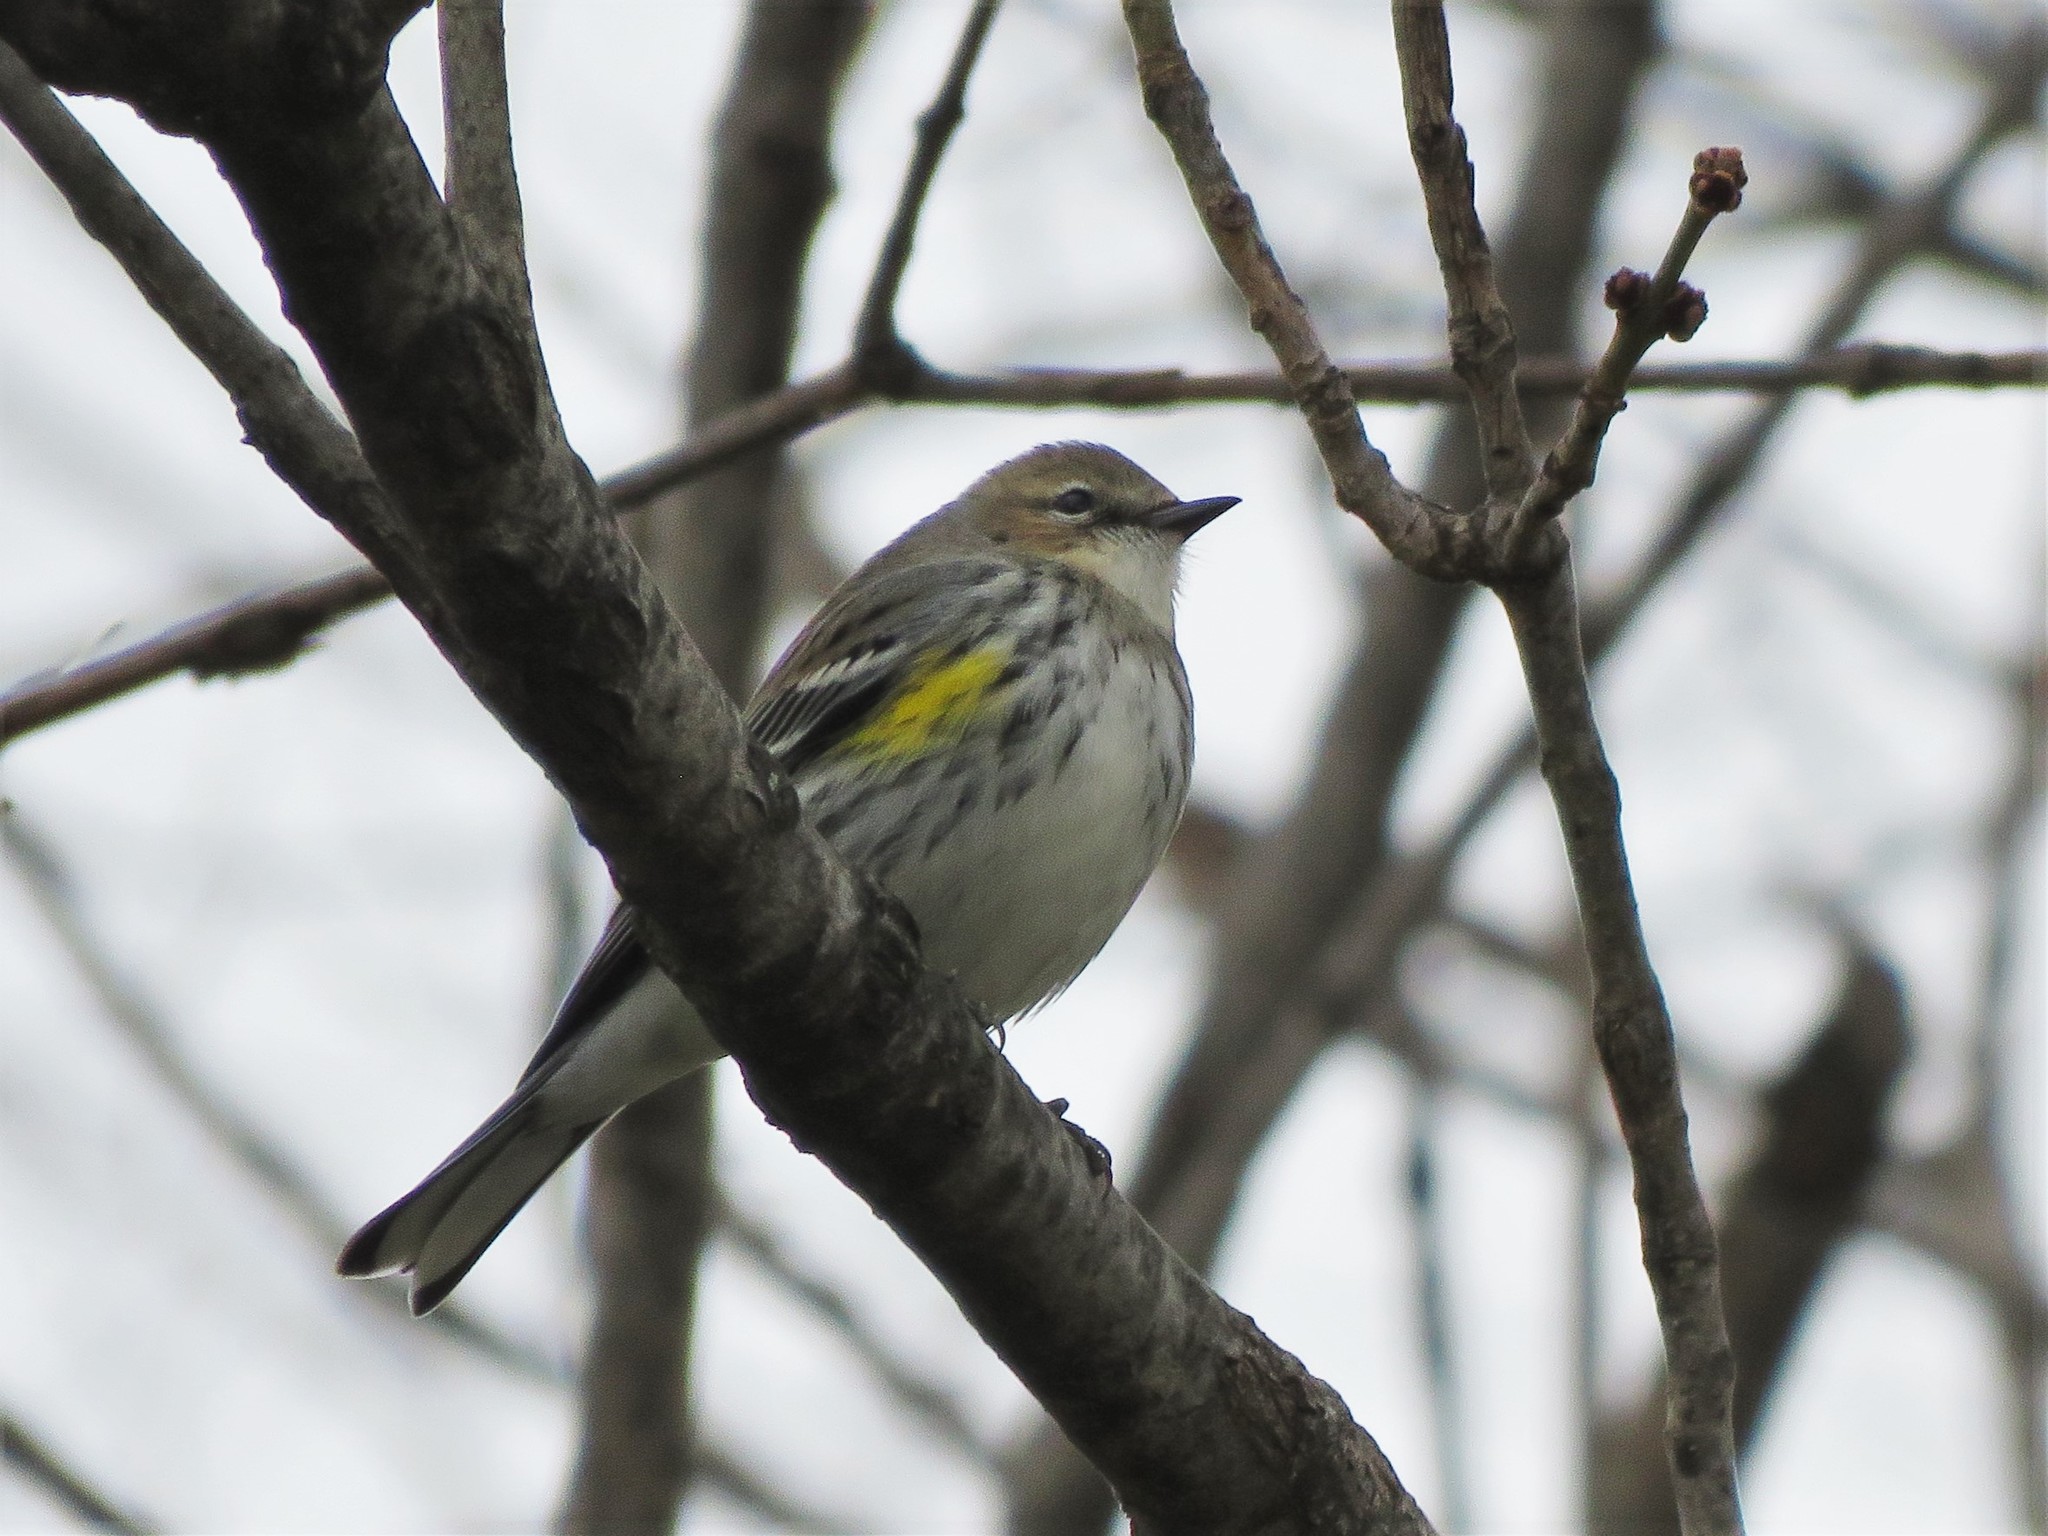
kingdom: Animalia
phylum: Chordata
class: Aves
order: Passeriformes
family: Parulidae
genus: Setophaga
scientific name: Setophaga coronata
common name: Myrtle warbler
